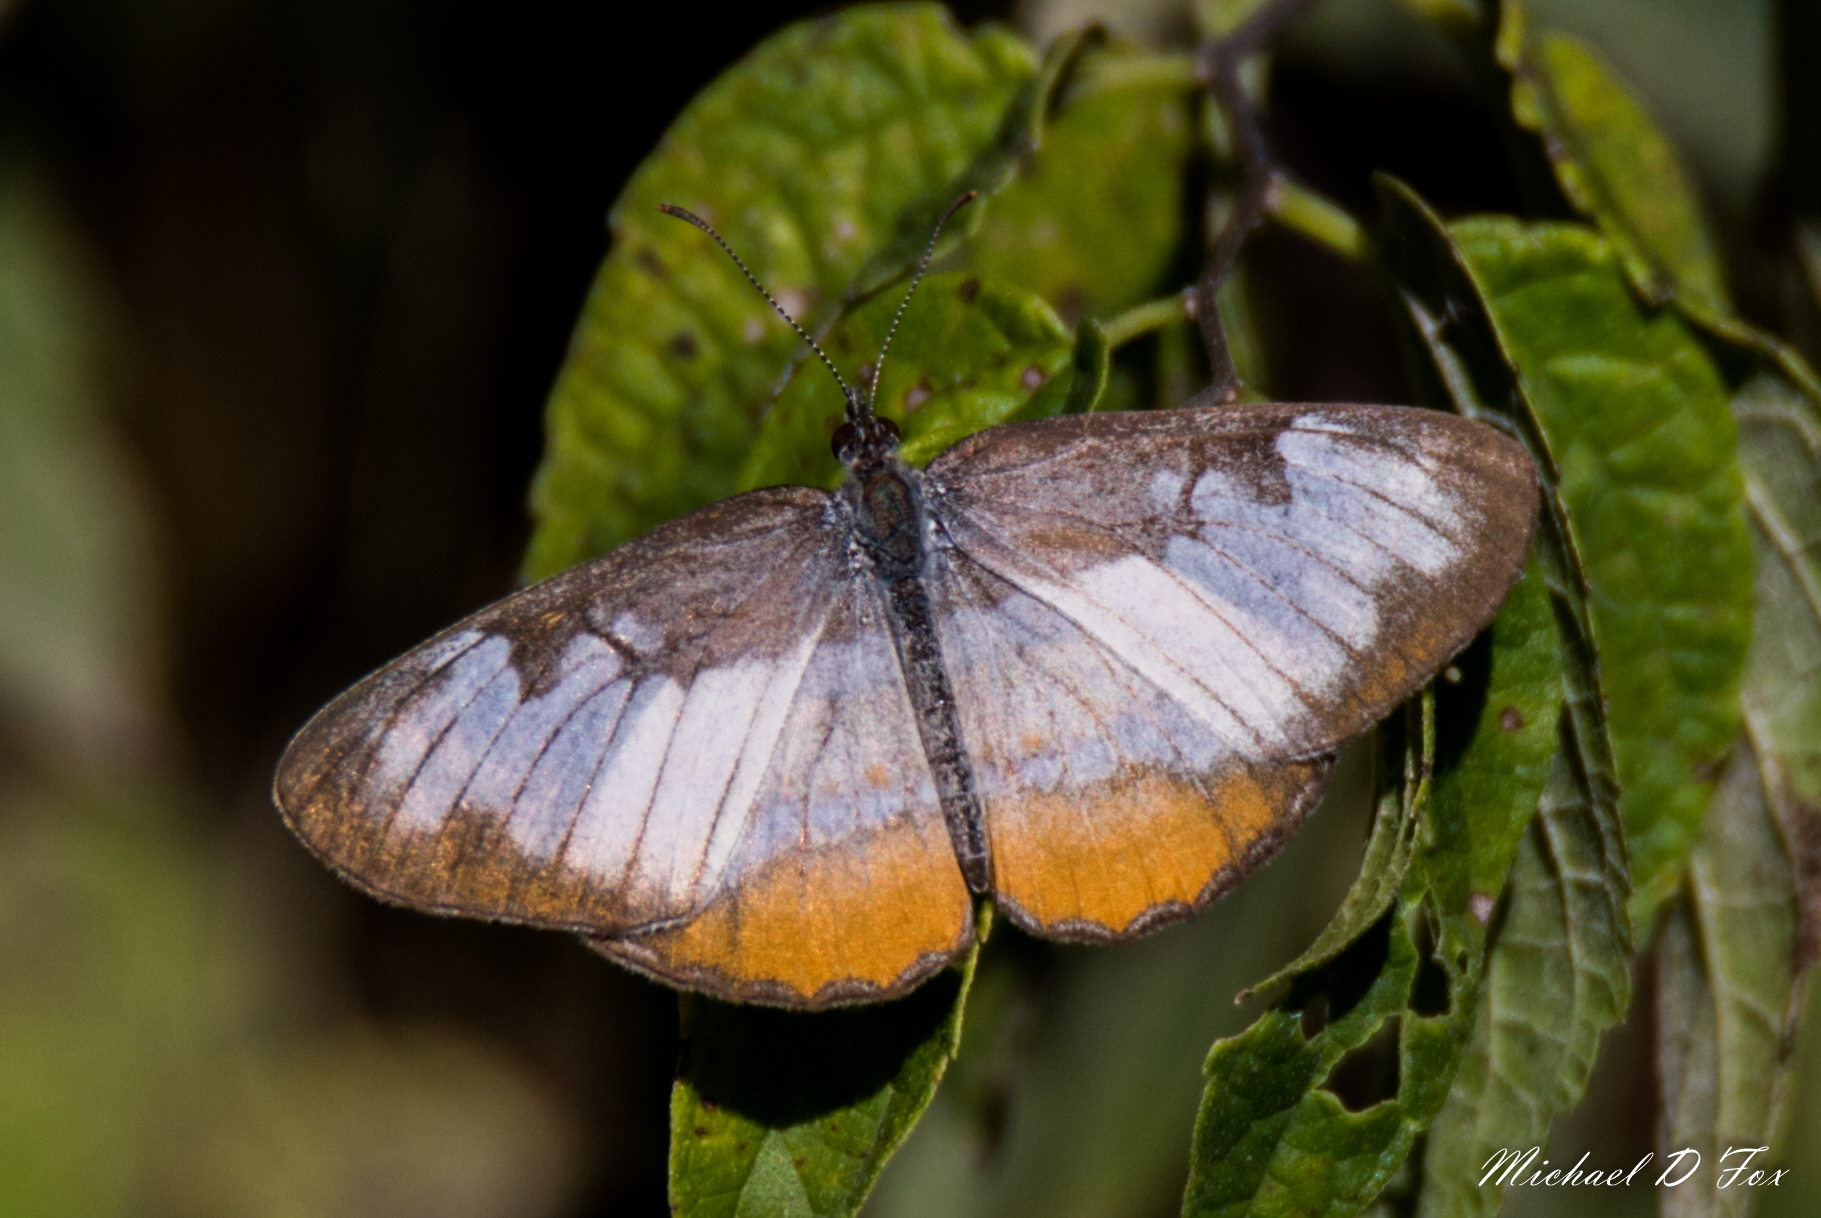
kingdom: Animalia
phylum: Arthropoda
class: Insecta
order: Lepidoptera
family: Nymphalidae
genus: Mestra
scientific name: Mestra amymone
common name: Common mestra
